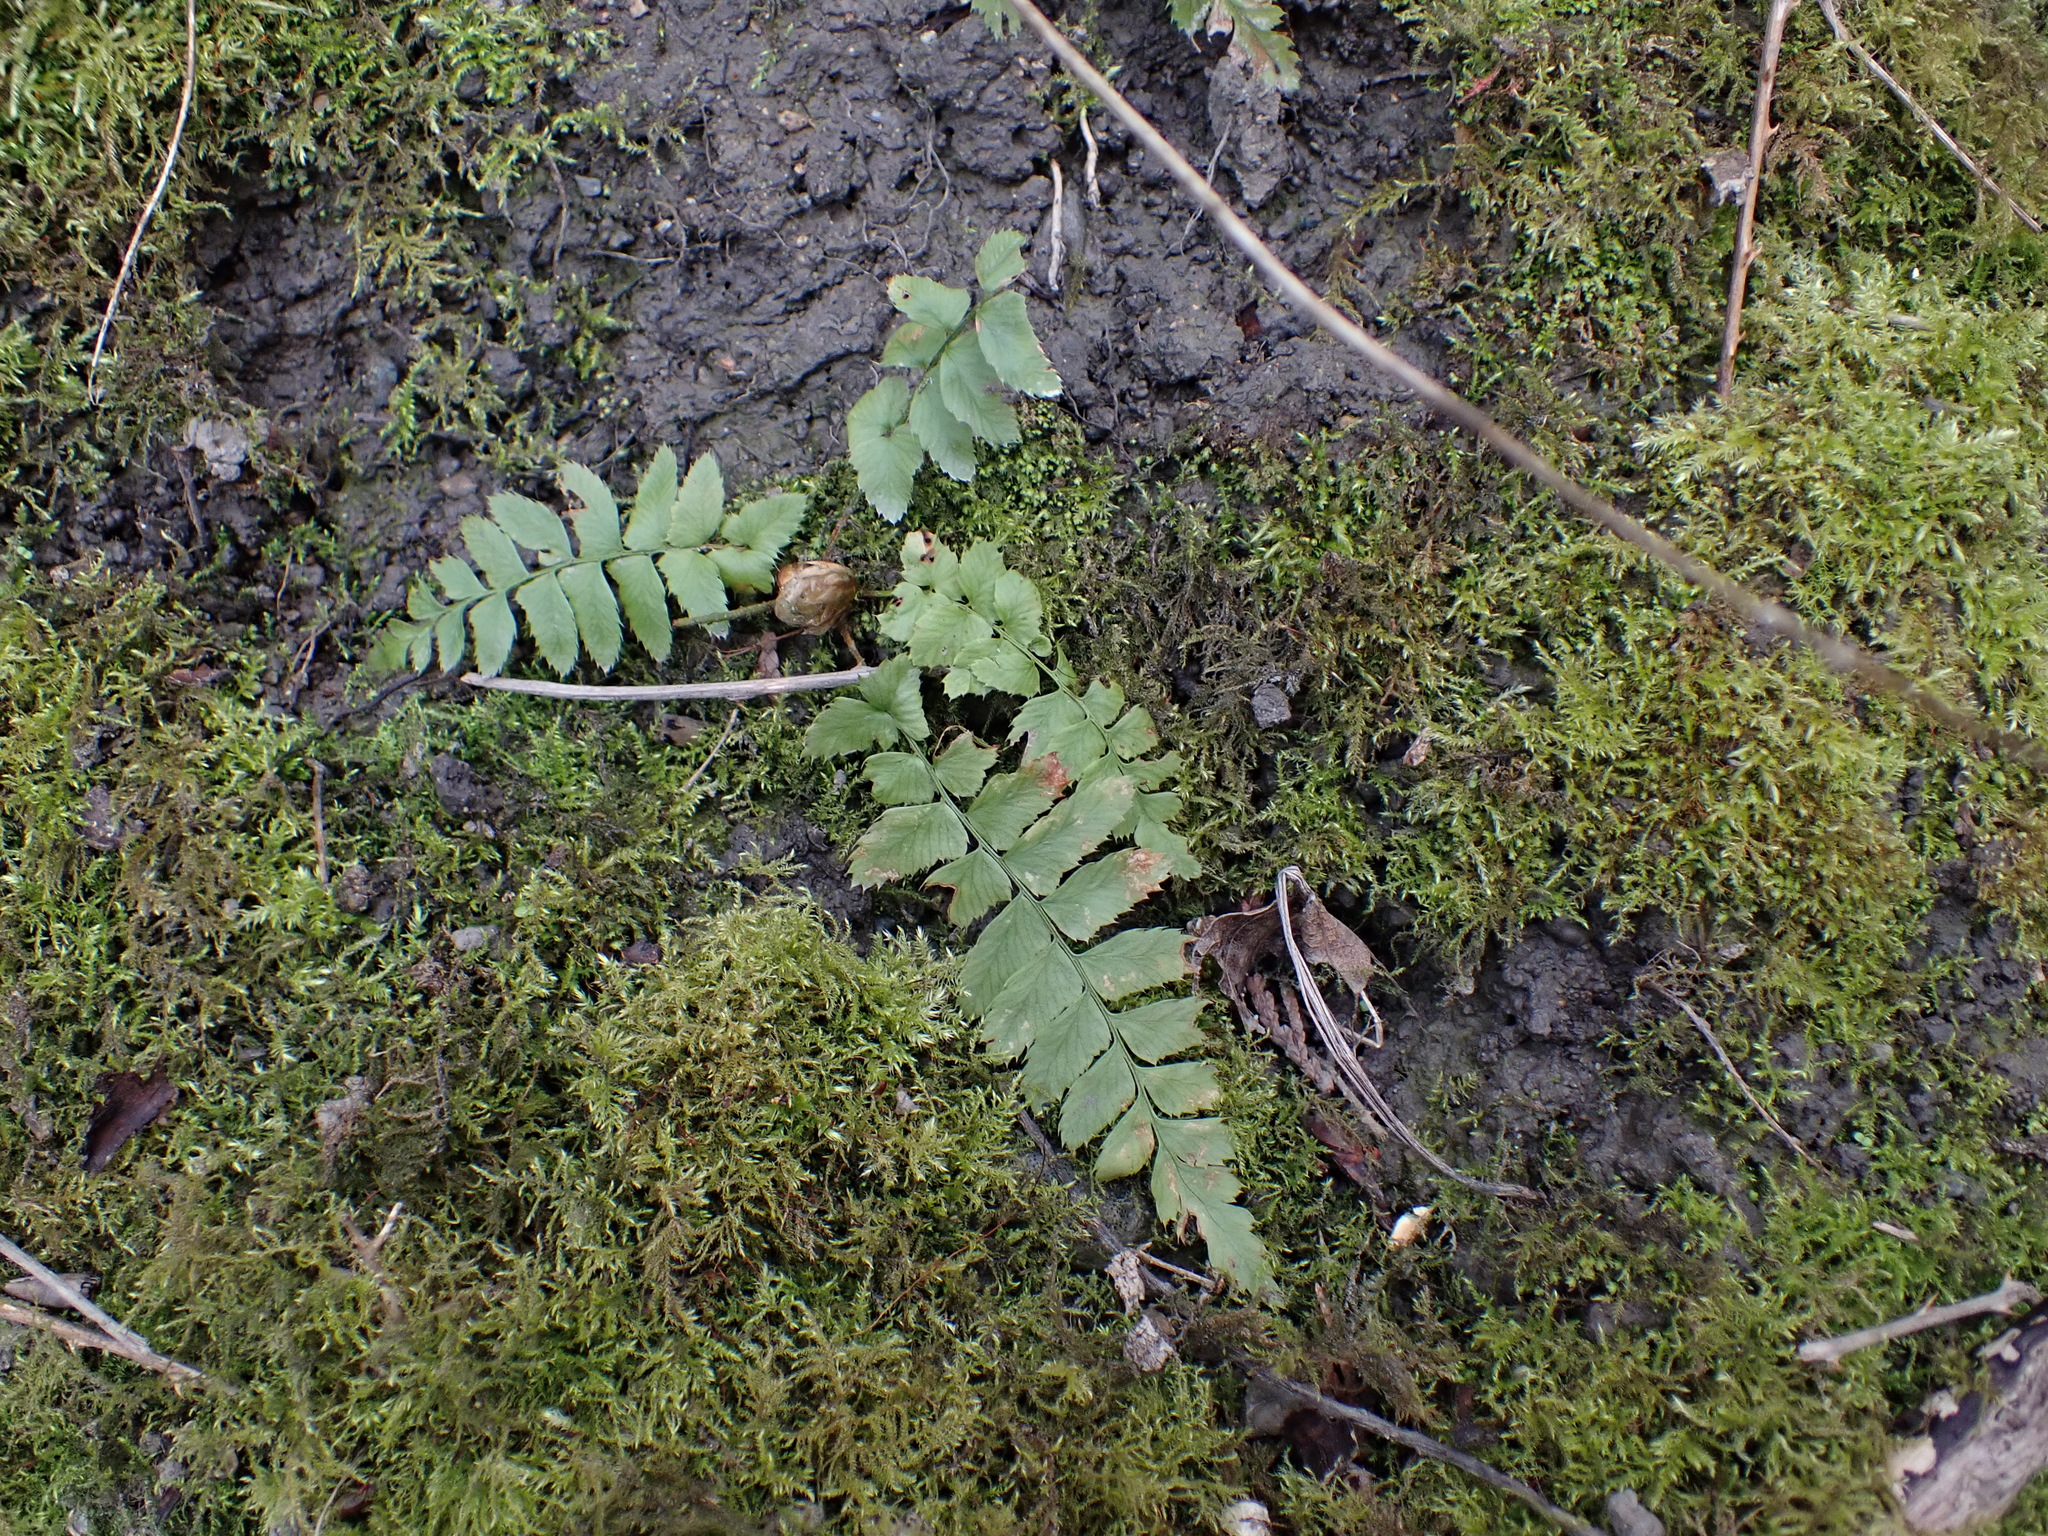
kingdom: Plantae
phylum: Tracheophyta
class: Polypodiopsida
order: Polypodiales
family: Dryopteridaceae
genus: Polystichum
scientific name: Polystichum munitum
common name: Western sword-fern
